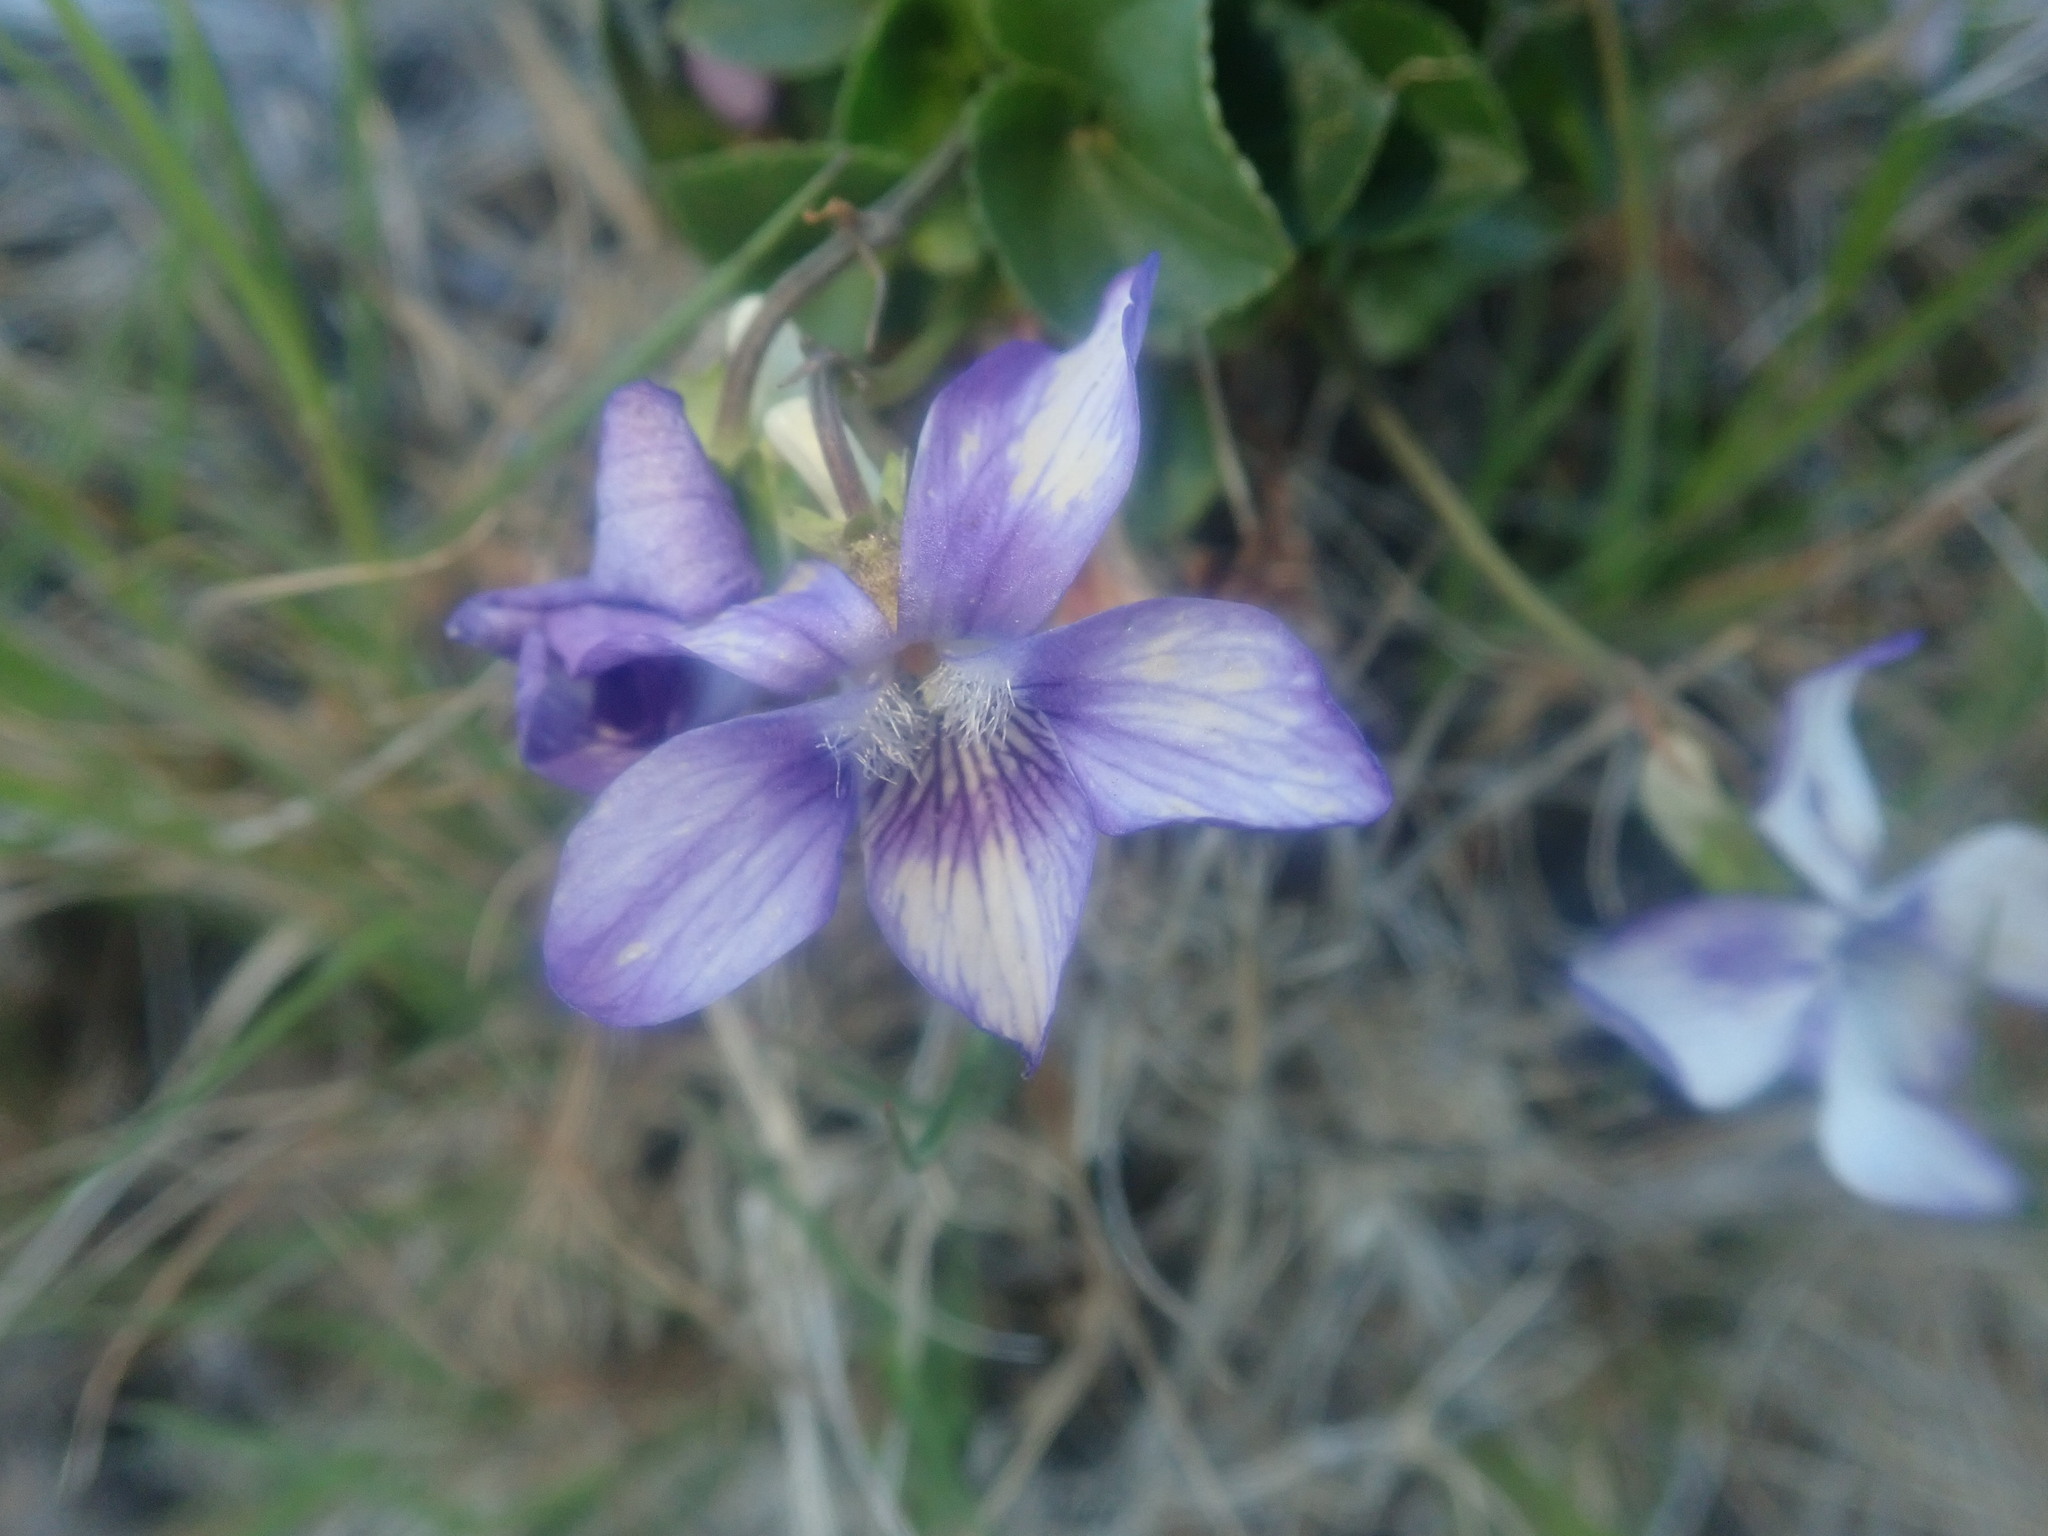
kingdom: Plantae
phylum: Tracheophyta
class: Magnoliopsida
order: Malpighiales
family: Violaceae
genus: Viola
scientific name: Viola riviniana
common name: Common dog-violet
